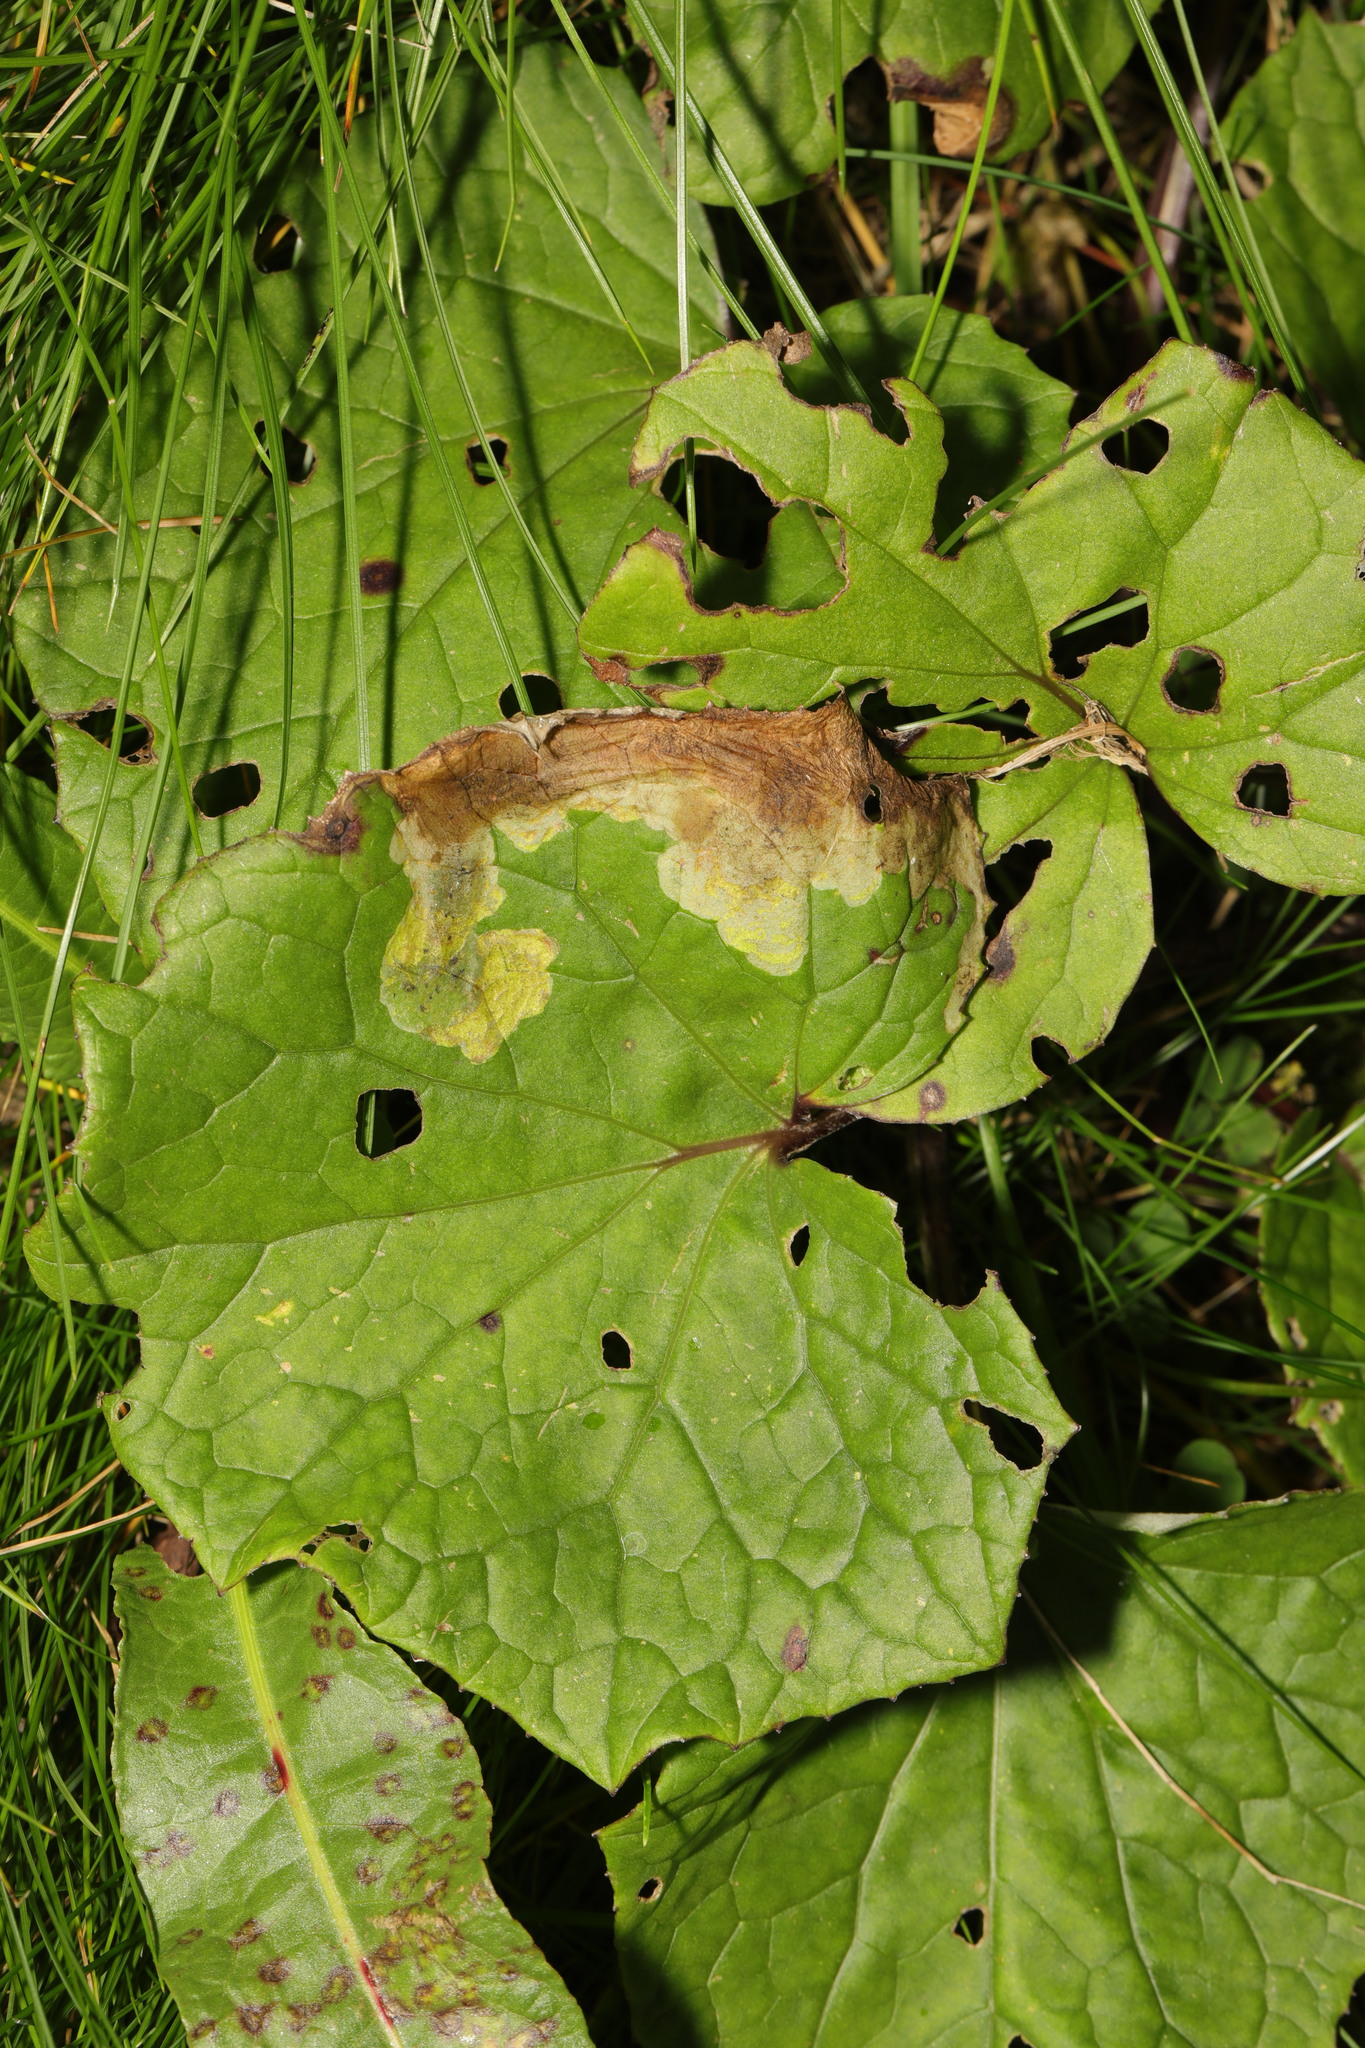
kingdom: Plantae
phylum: Tracheophyta
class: Magnoliopsida
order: Asterales
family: Asteraceae
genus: Tussilago
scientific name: Tussilago farfara
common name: Coltsfoot
